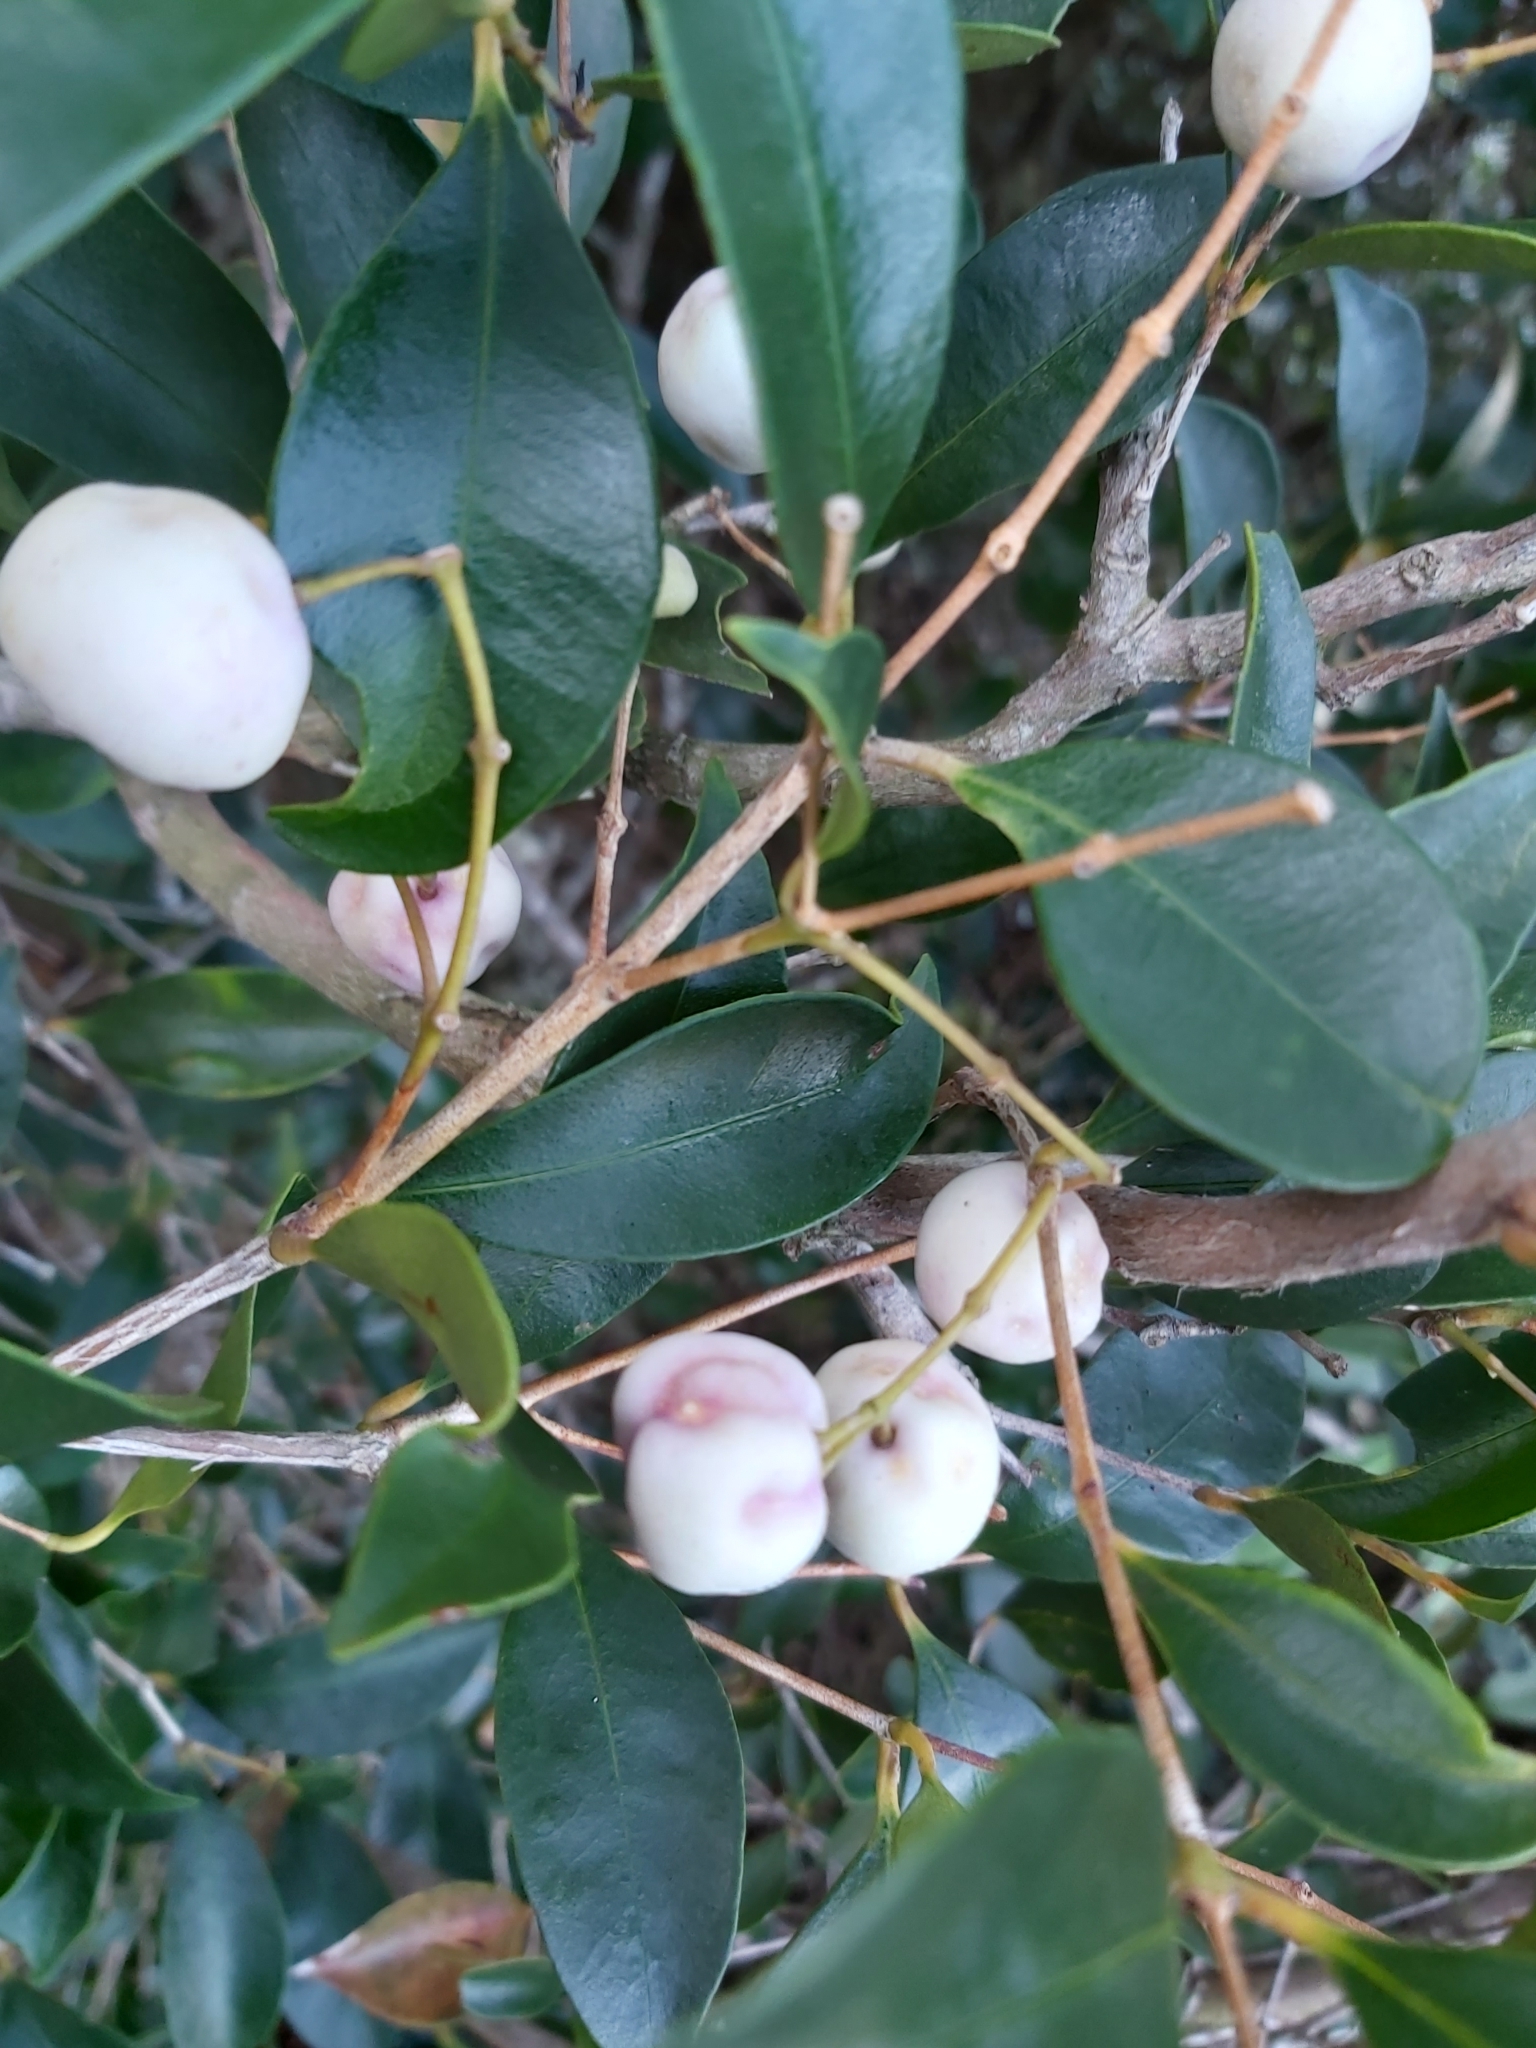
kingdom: Plantae
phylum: Tracheophyta
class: Magnoliopsida
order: Myrtales
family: Myrtaceae
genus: Syzygium
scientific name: Syzygium smithii
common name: Lilly-pilly
